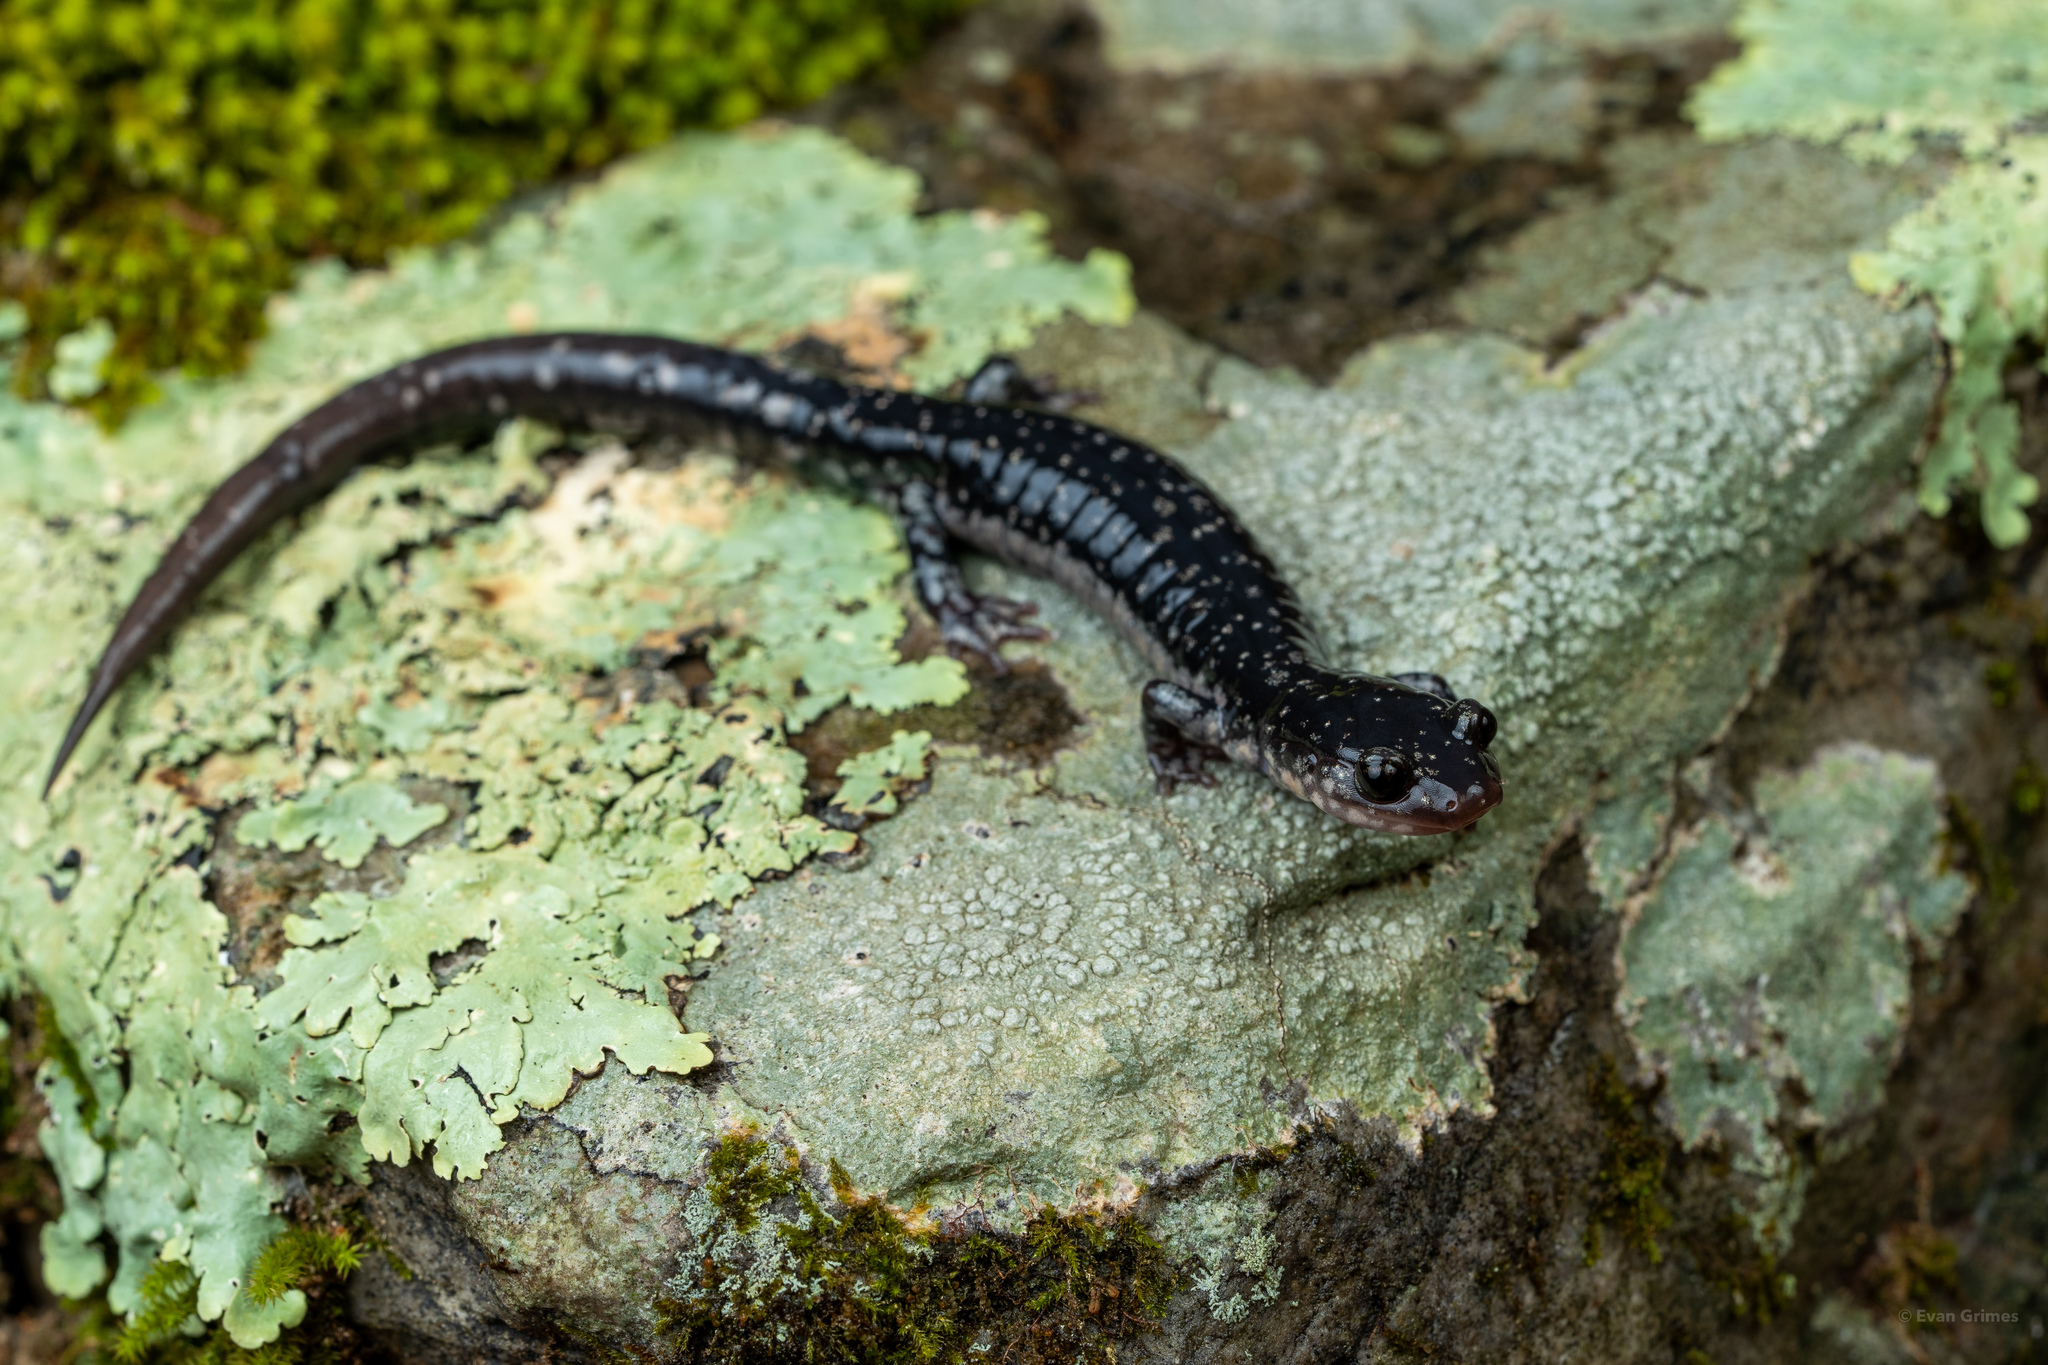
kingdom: Animalia
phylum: Chordata
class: Amphibia
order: Caudata
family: Plethodontidae
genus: Plethodon
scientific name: Plethodon ouachitae
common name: Rich mountain salamander
